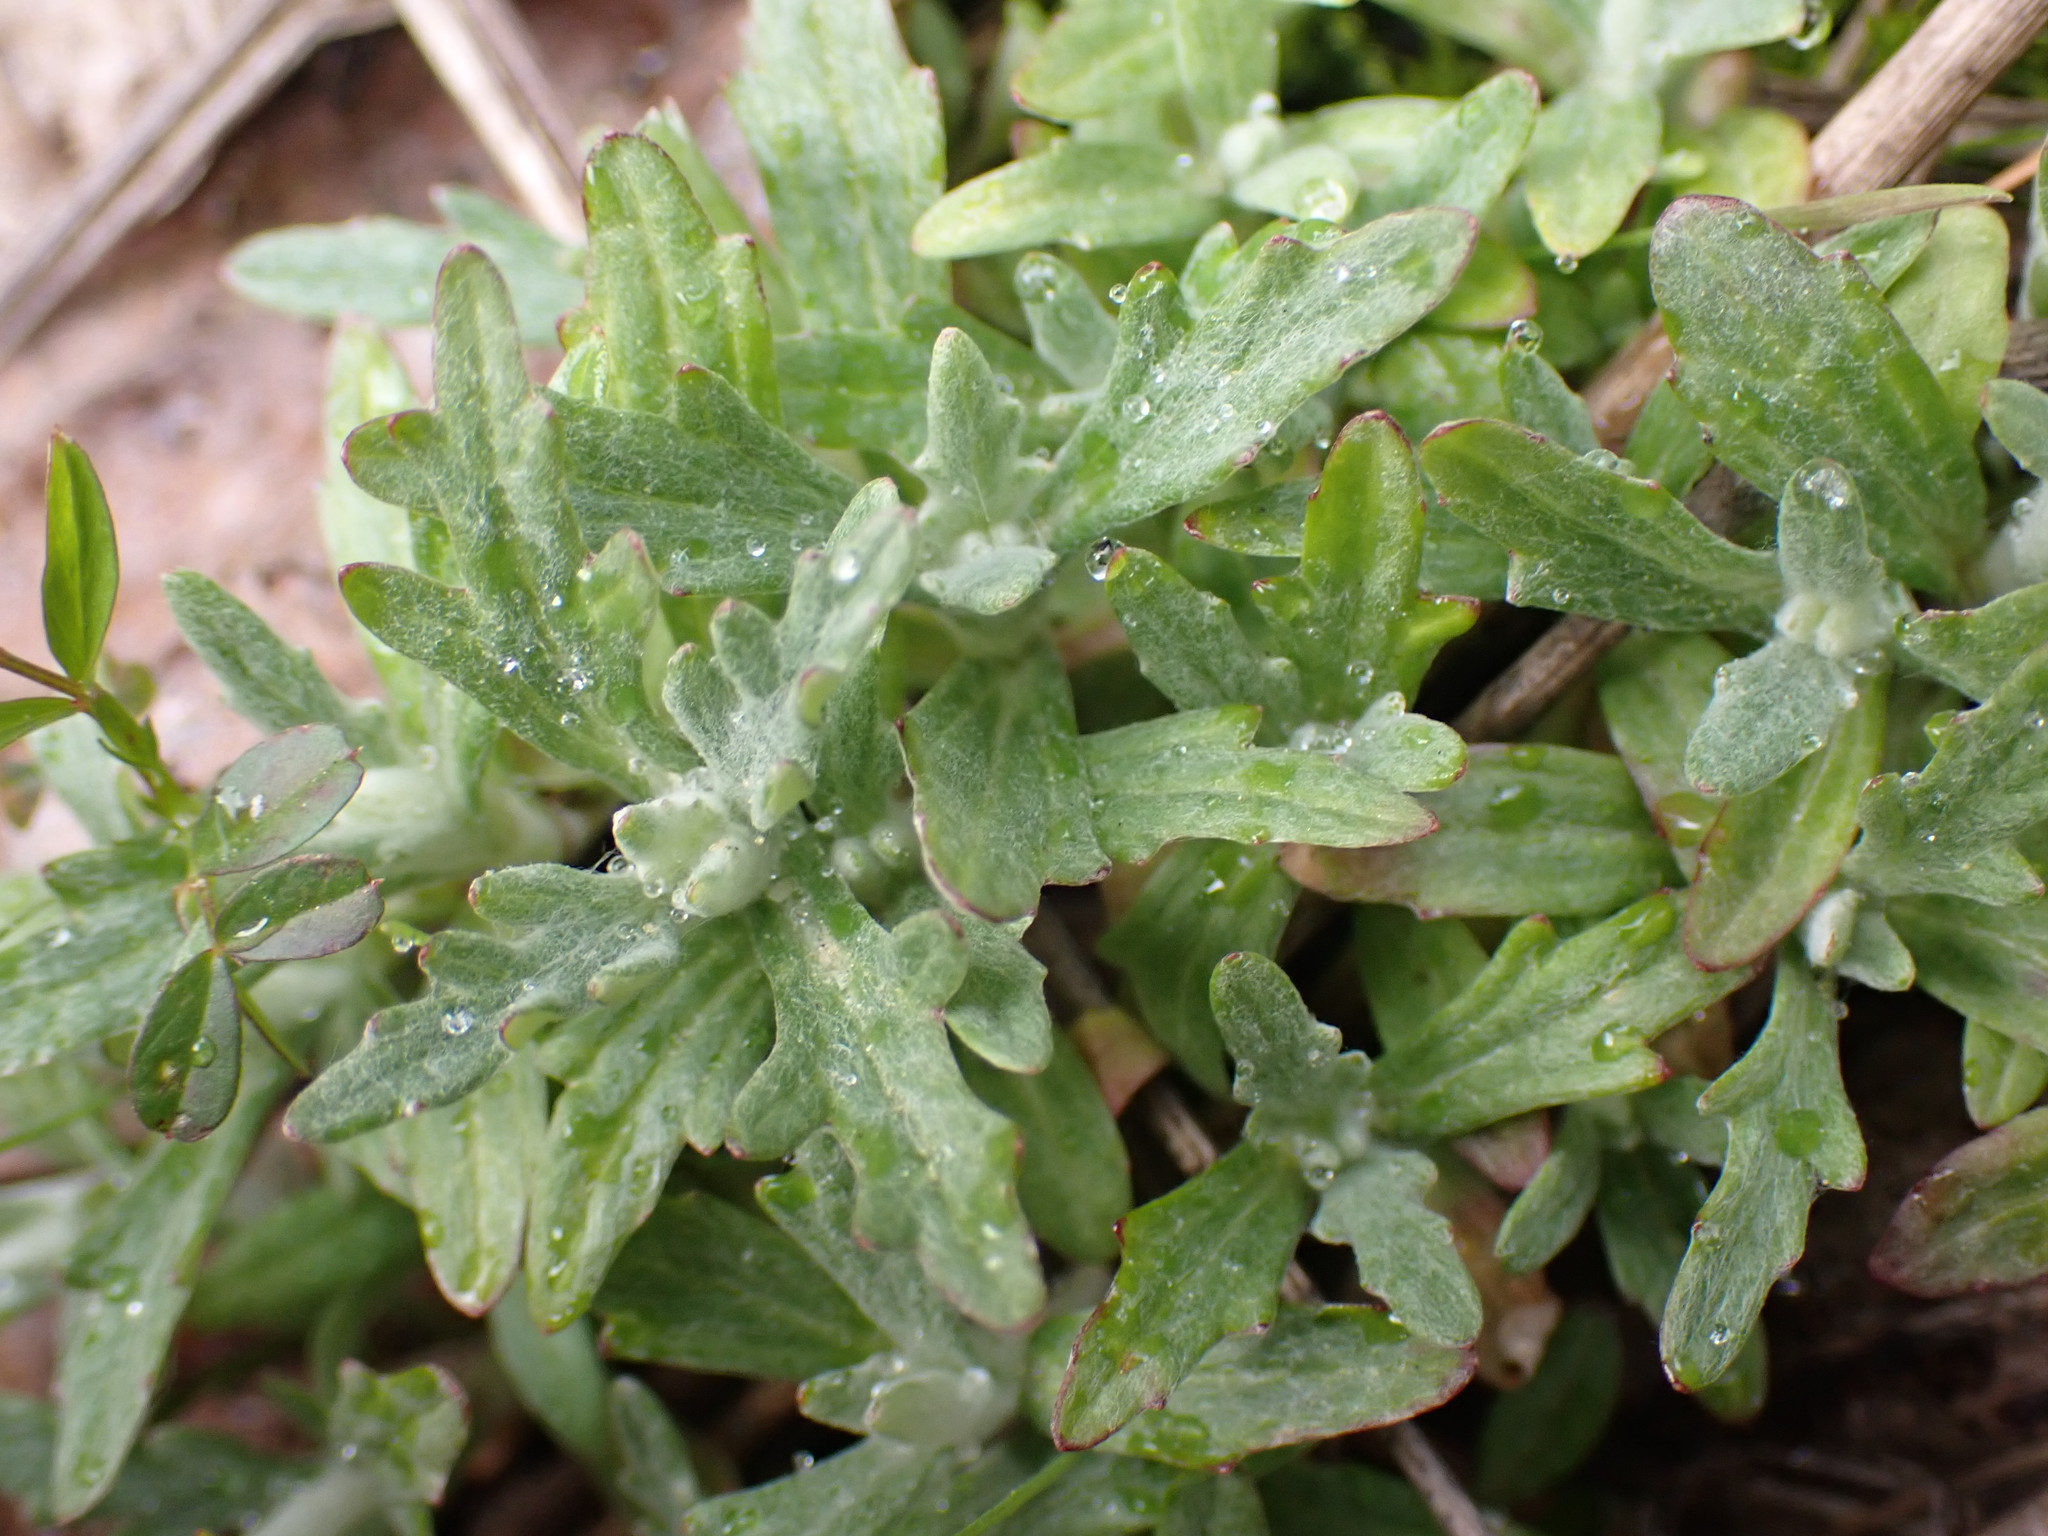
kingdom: Plantae
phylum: Tracheophyta
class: Magnoliopsida
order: Asterales
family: Asteraceae
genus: Eriophyllum
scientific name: Eriophyllum lanatum
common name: Common woolly-sunflower
